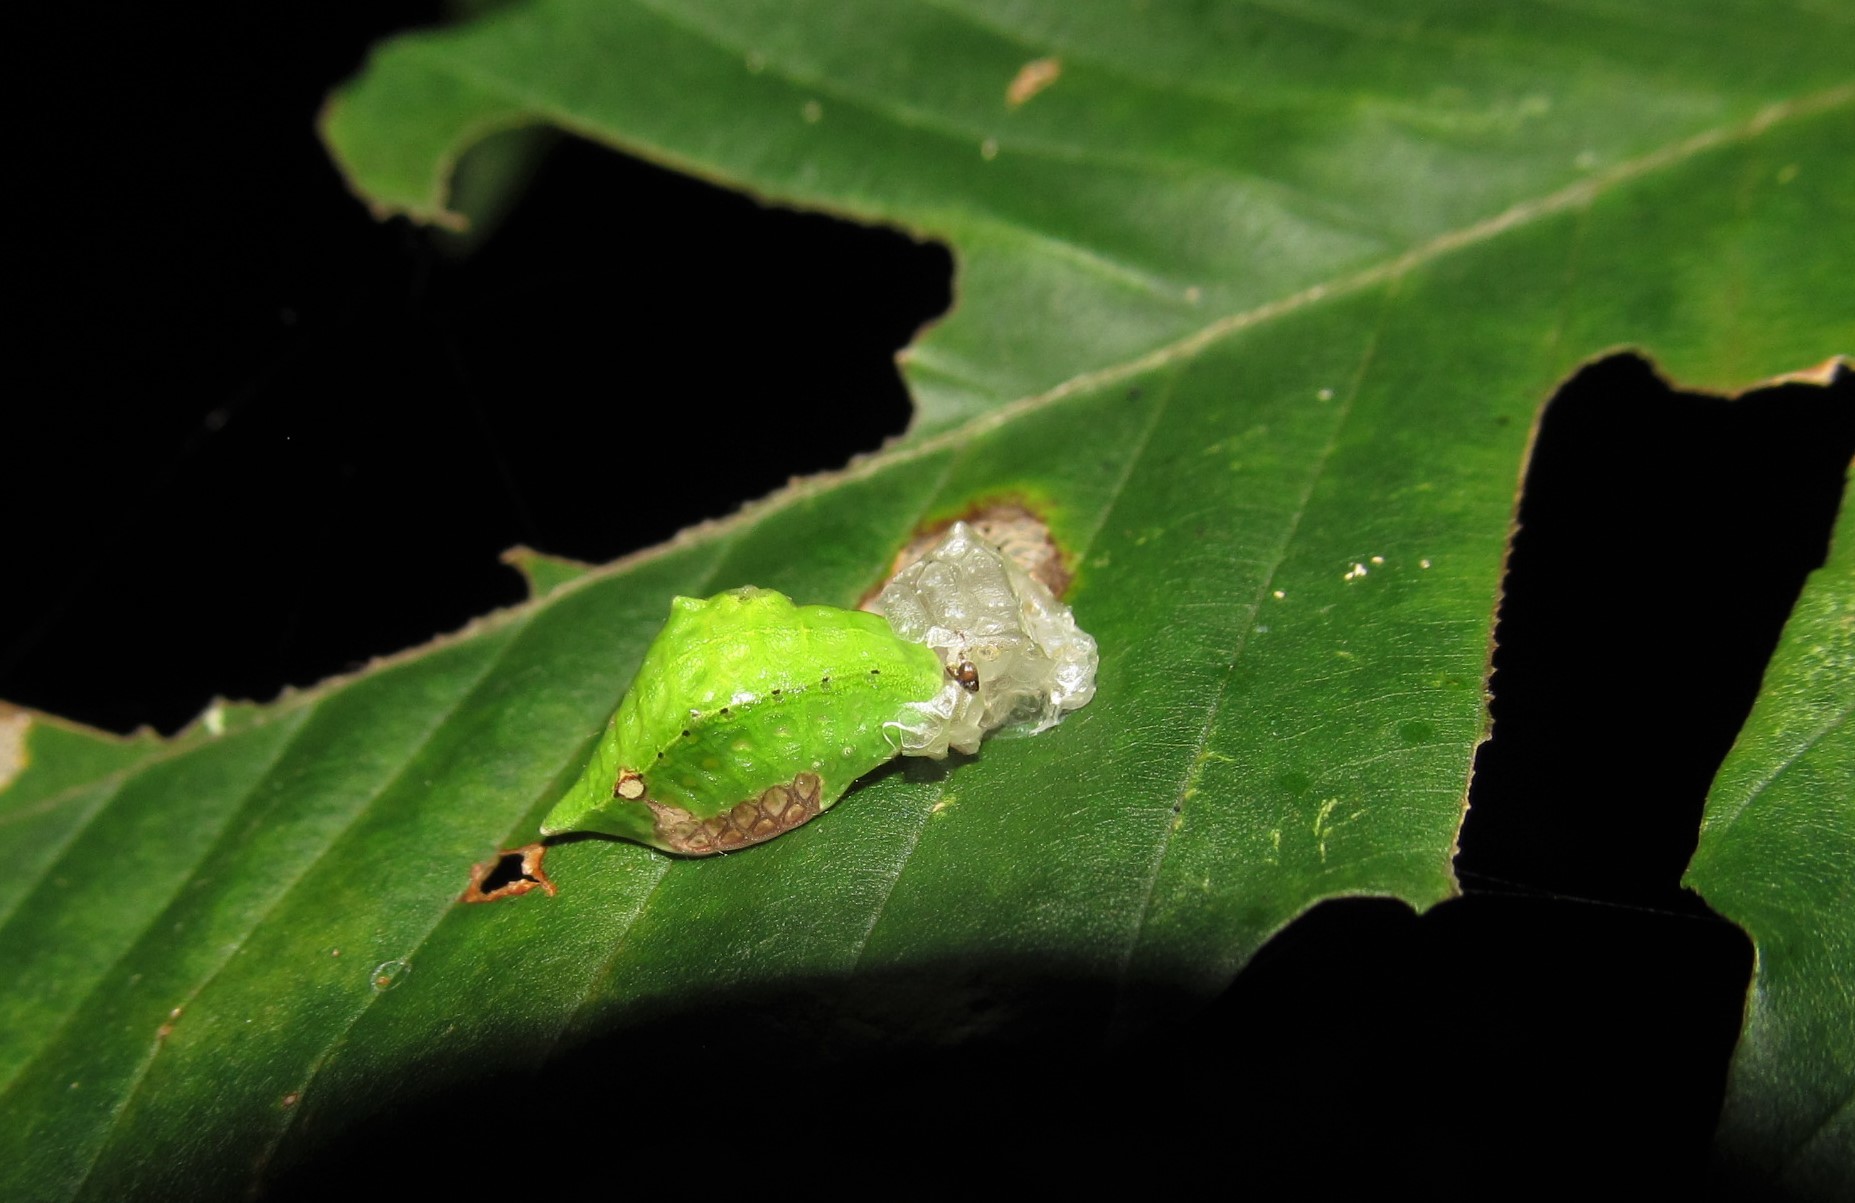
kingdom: Animalia
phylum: Arthropoda
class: Insecta
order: Lepidoptera
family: Limacodidae
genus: Prolimacodes
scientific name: Prolimacodes badia
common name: Skiff moth
